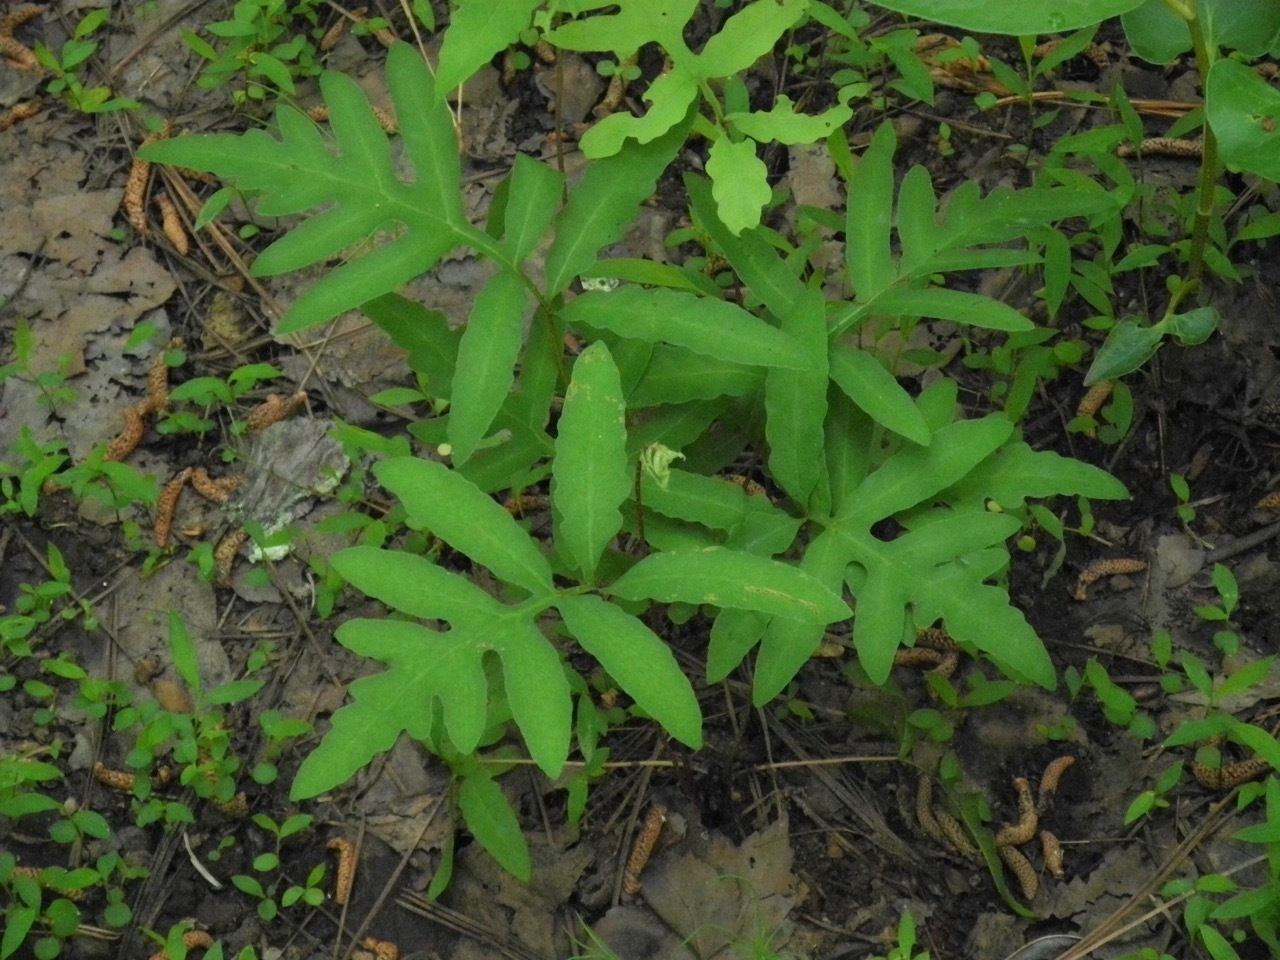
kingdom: Plantae
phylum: Tracheophyta
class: Polypodiopsida
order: Polypodiales
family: Onocleaceae
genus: Onoclea
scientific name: Onoclea sensibilis
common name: Sensitive fern
